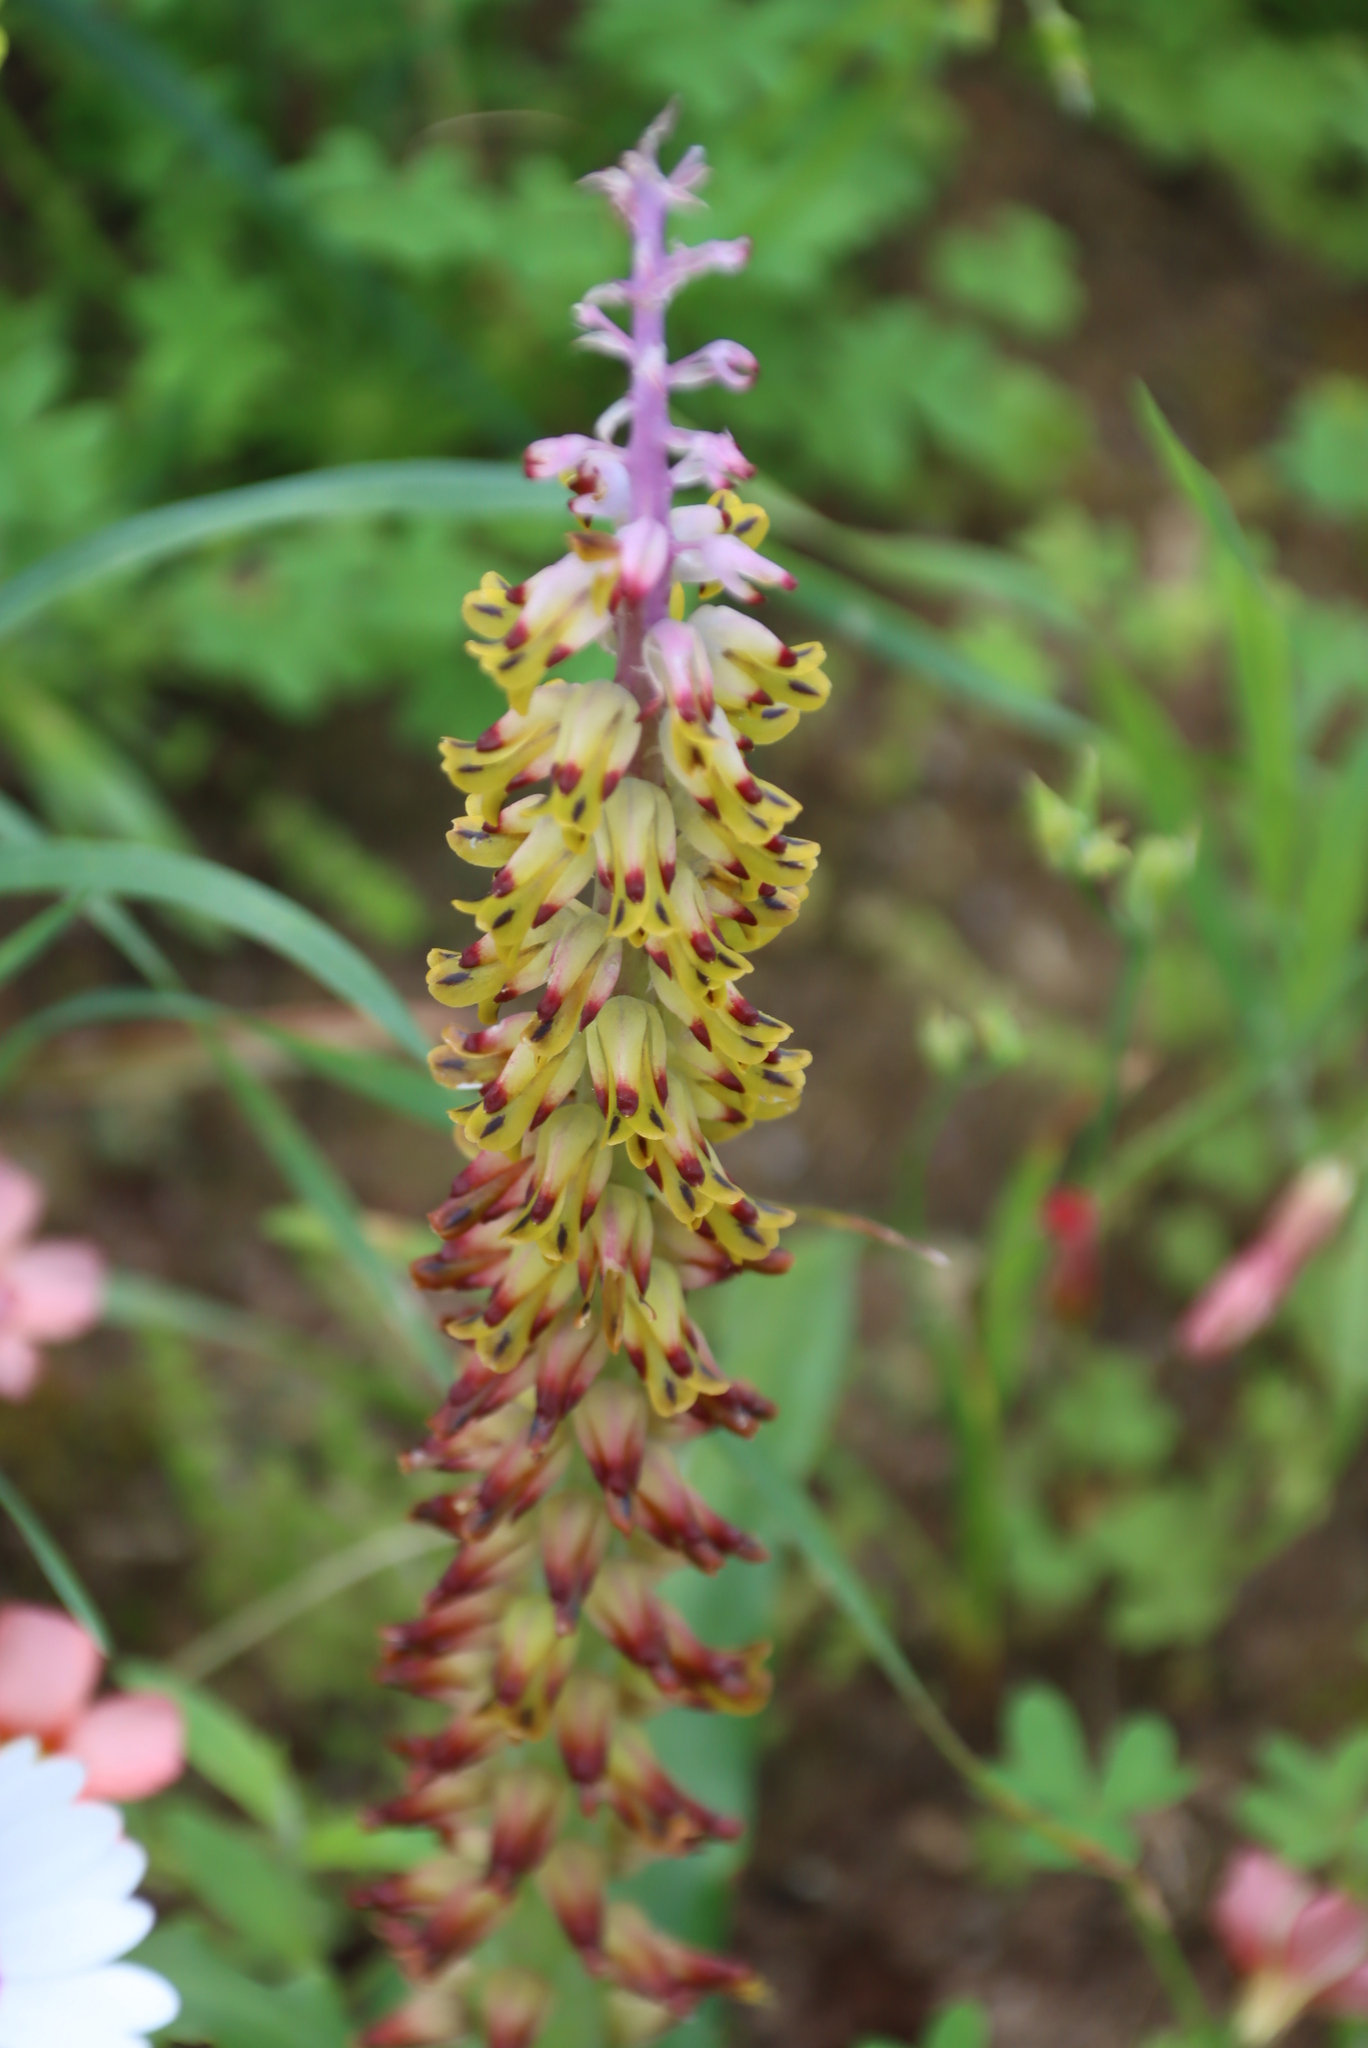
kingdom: Plantae
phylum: Tracheophyta
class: Liliopsida
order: Asparagales
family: Asparagaceae
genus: Lachenalia
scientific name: Lachenalia mutabilis
